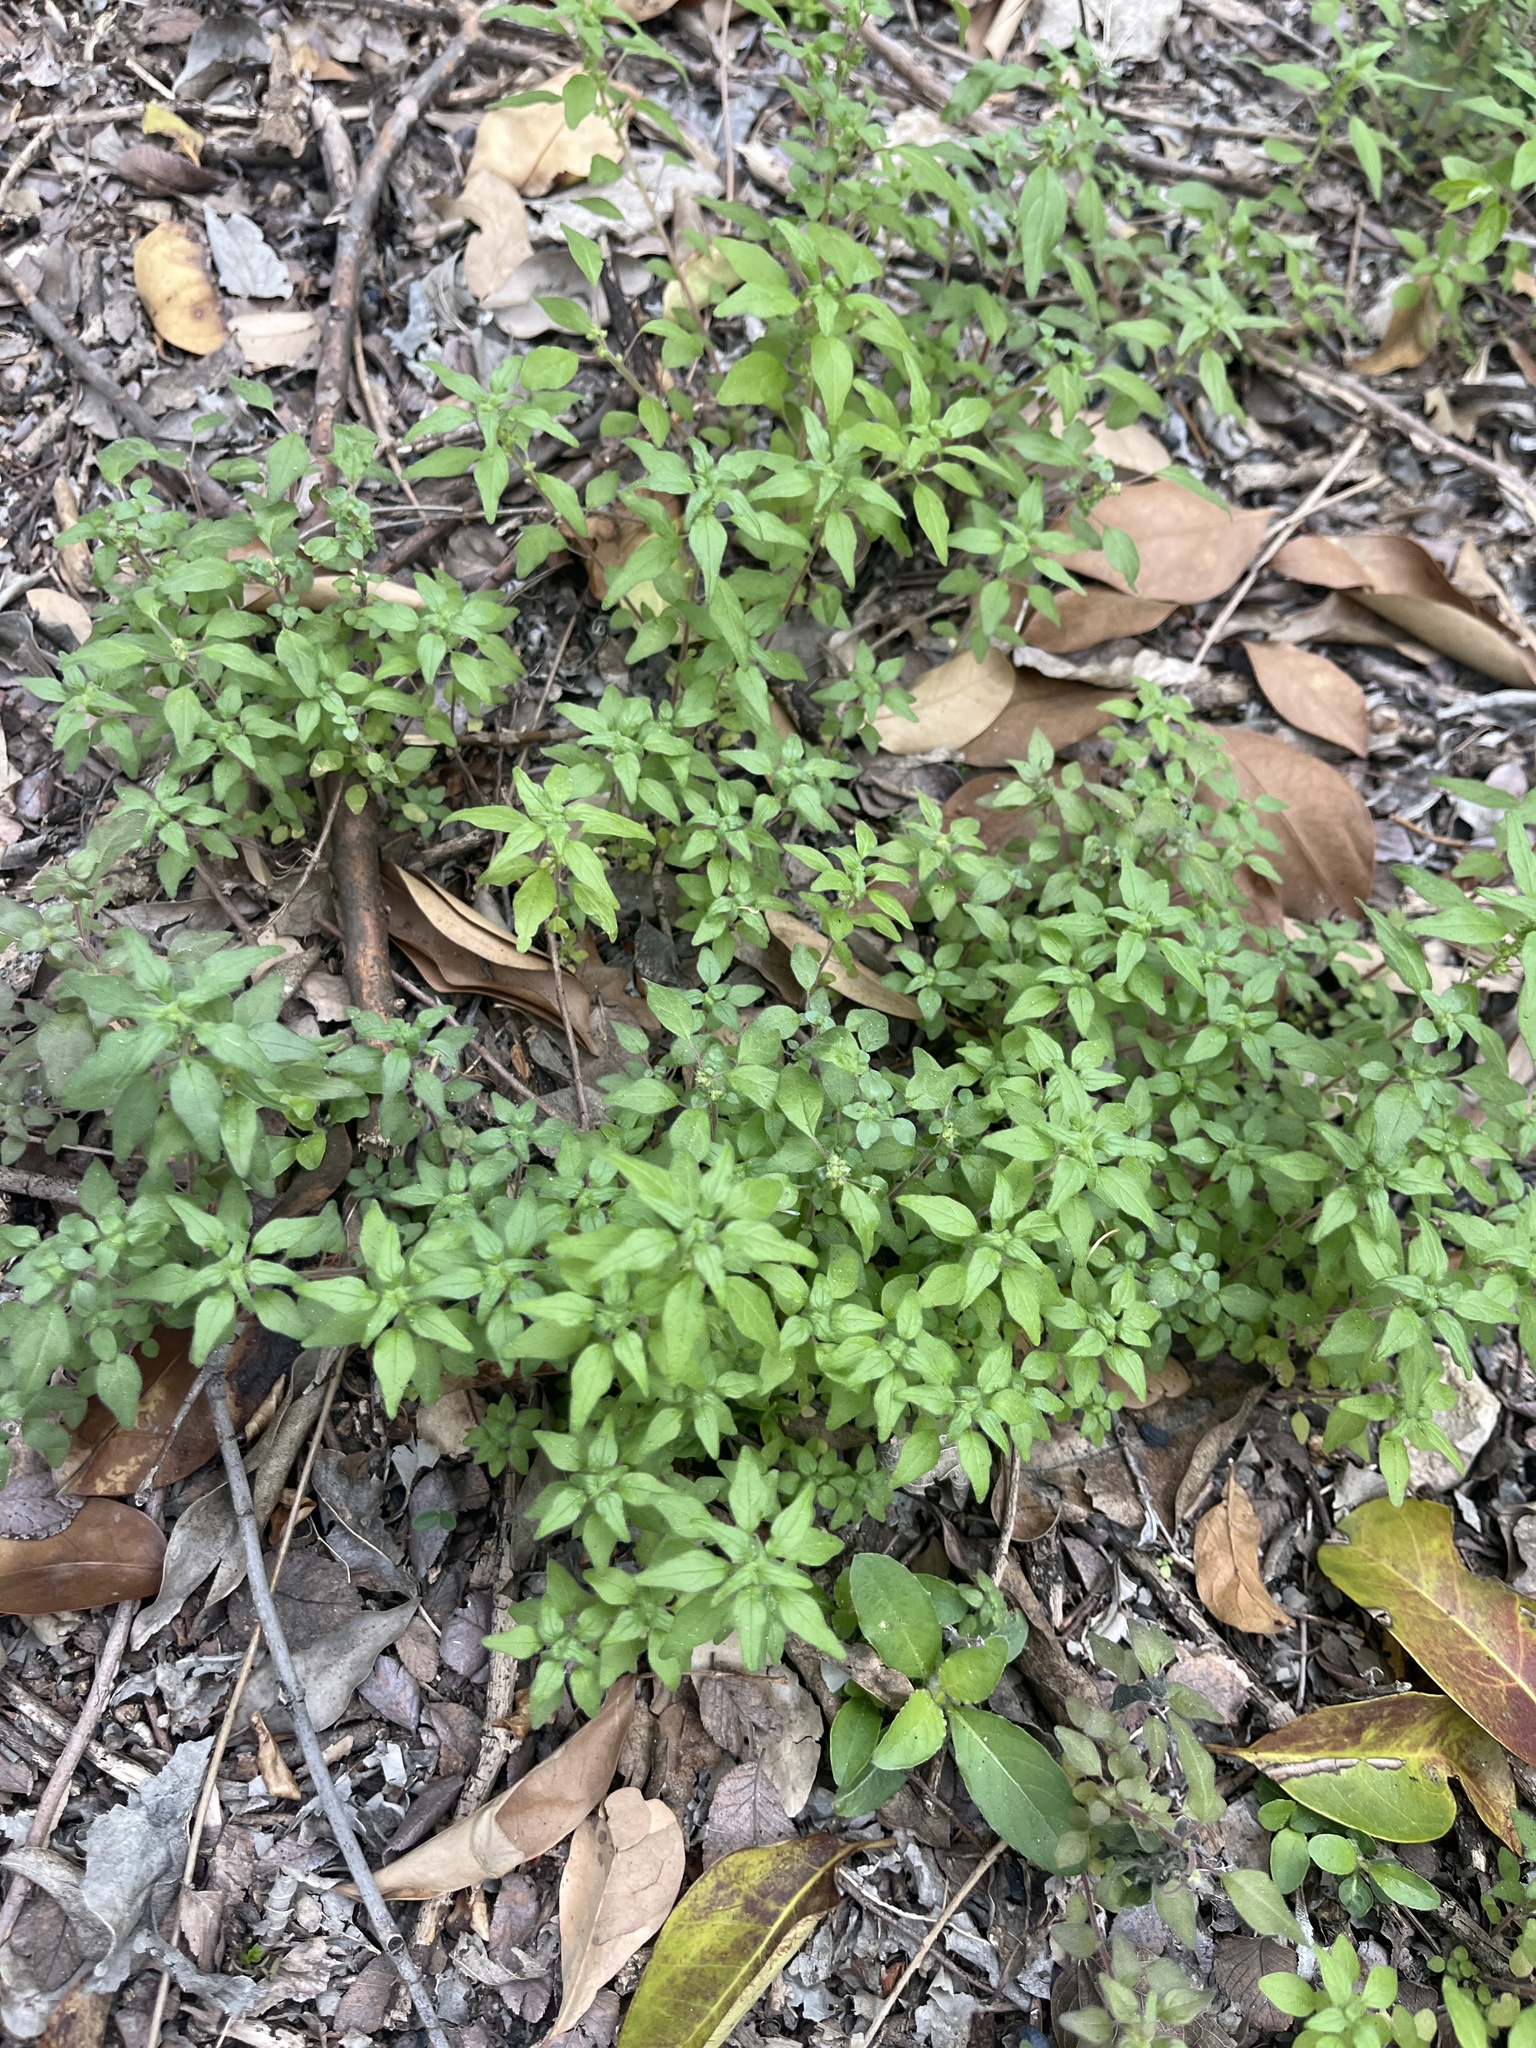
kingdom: Plantae
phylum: Tracheophyta
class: Magnoliopsida
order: Rosales
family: Urticaceae
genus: Parietaria
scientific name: Parietaria pensylvanica
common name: Pennsylvania pellitory
